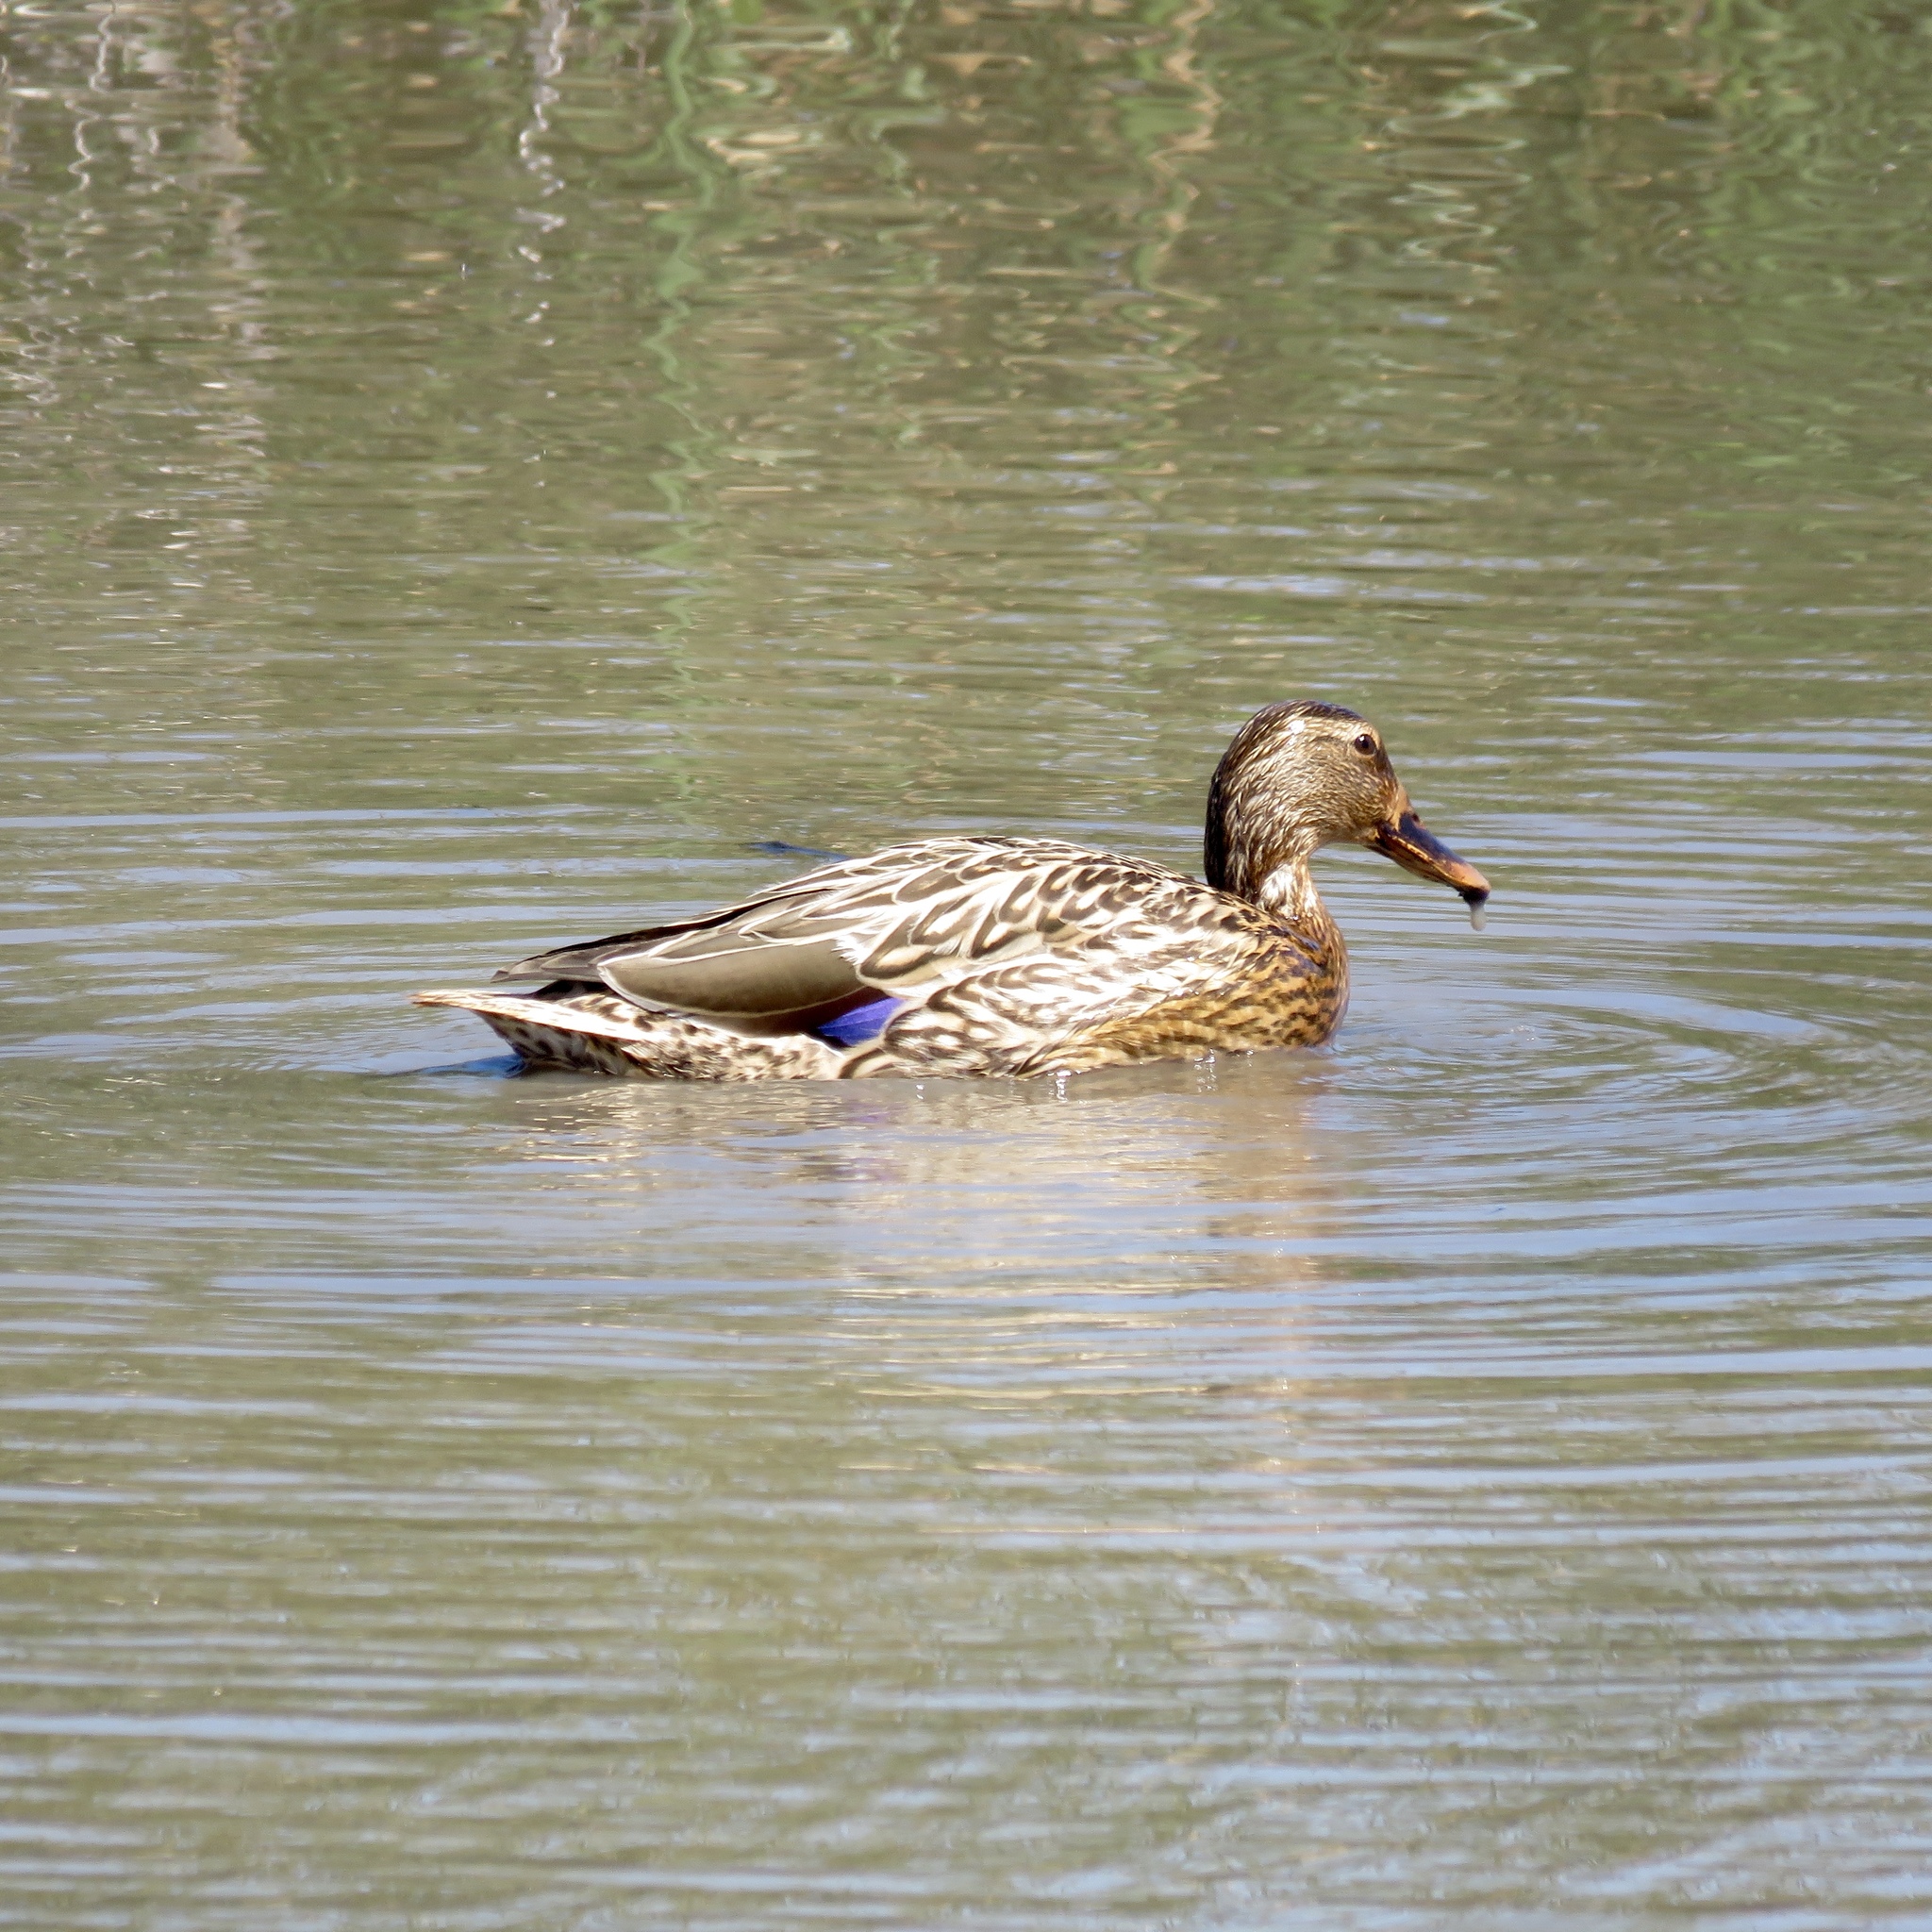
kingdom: Animalia
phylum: Chordata
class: Aves
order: Anseriformes
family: Anatidae
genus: Anas
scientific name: Anas platyrhynchos
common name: Mallard
